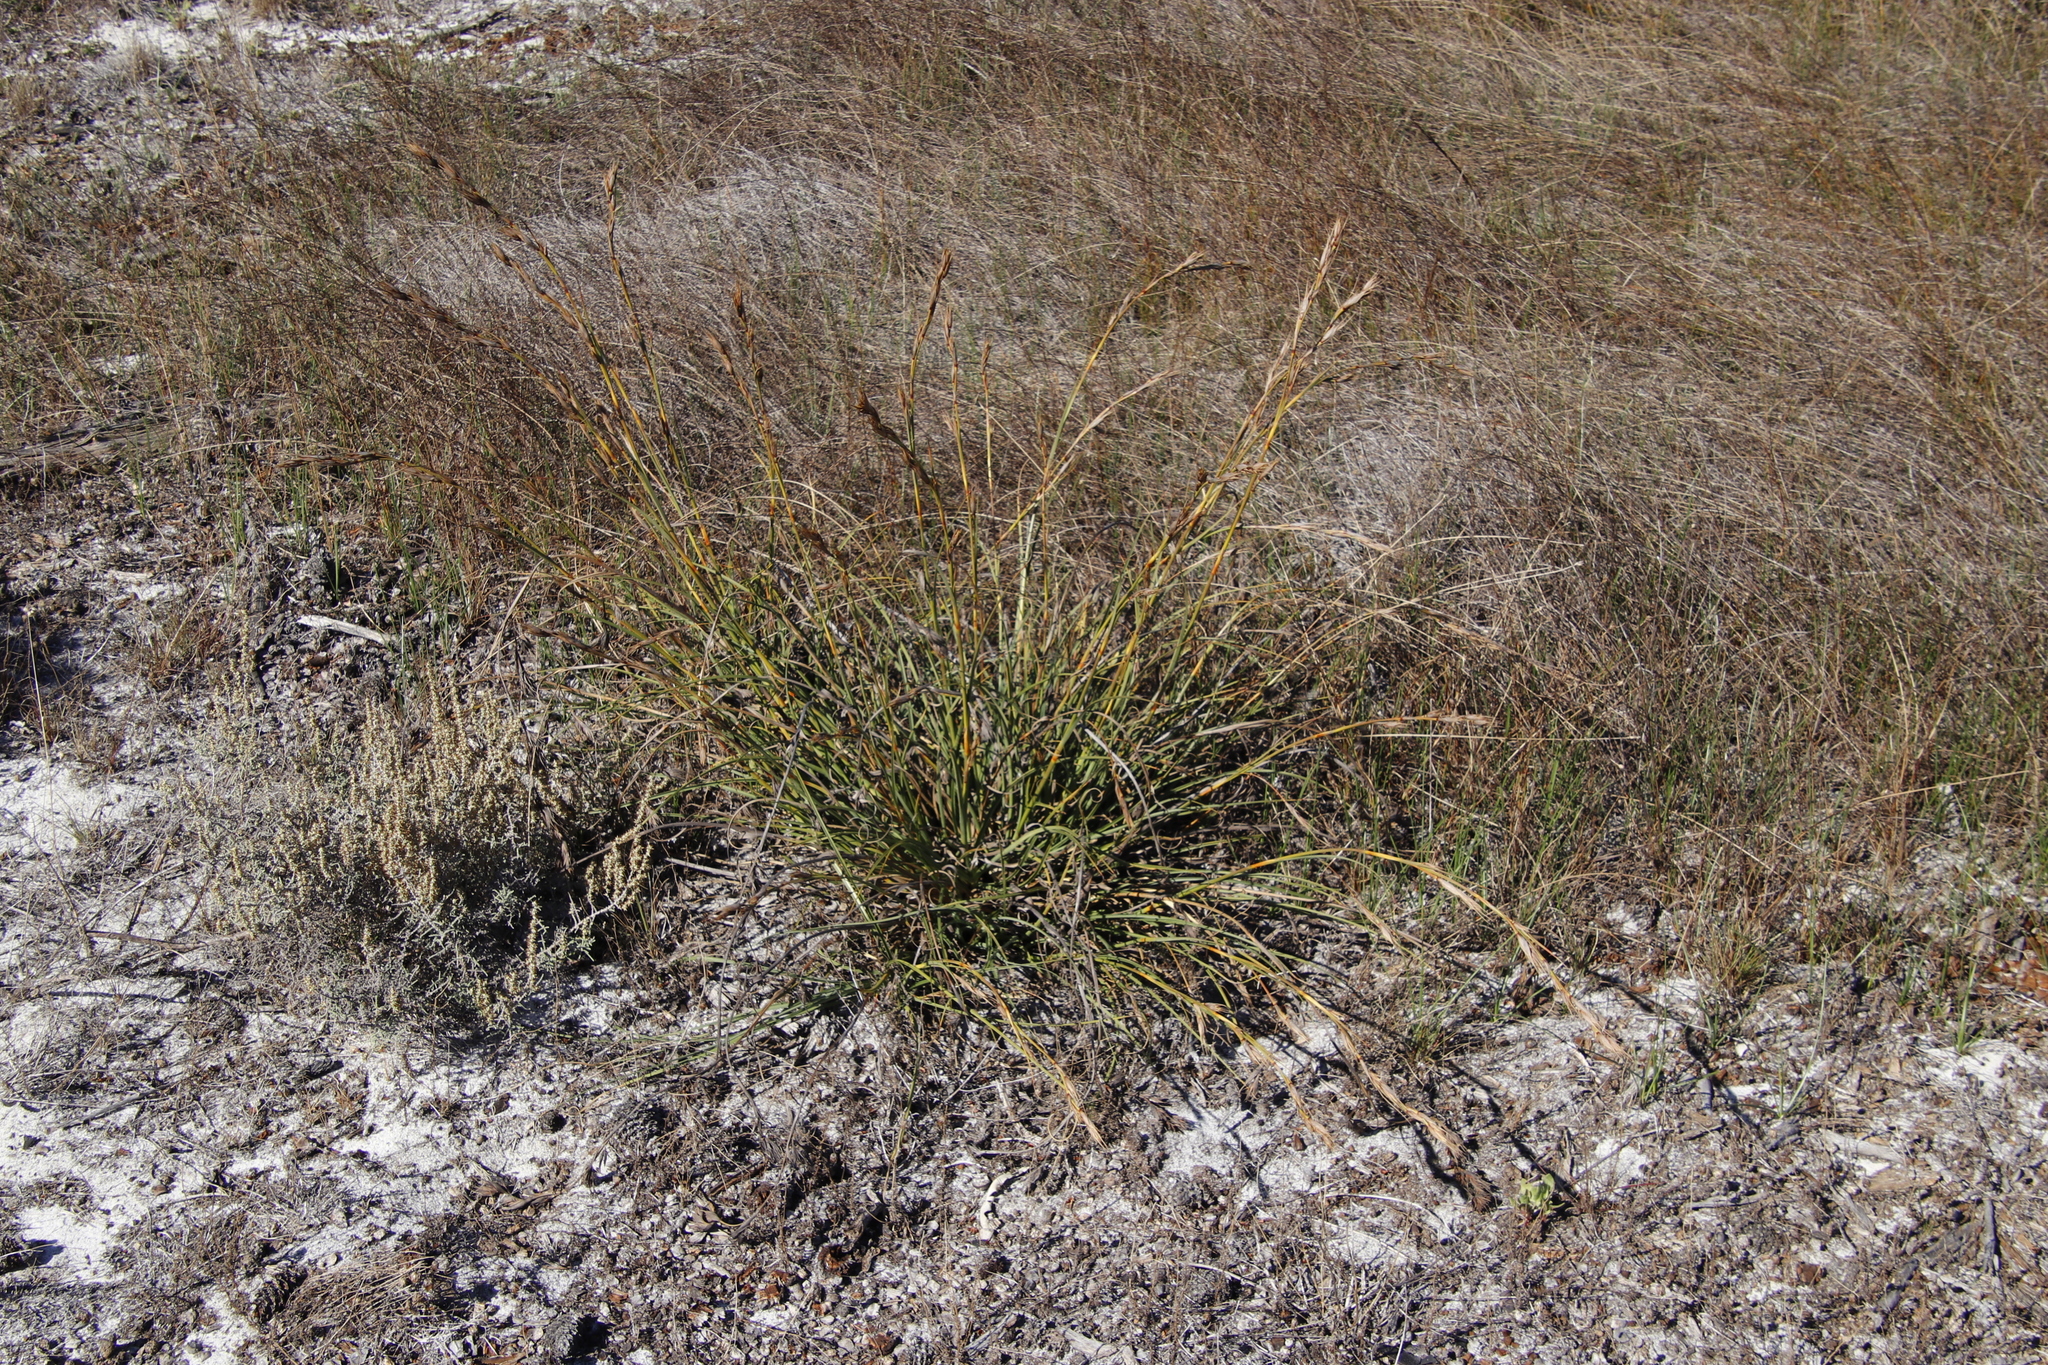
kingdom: Plantae
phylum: Tracheophyta
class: Liliopsida
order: Poales
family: Cyperaceae
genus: Tetraria
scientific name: Tetraria eximia
